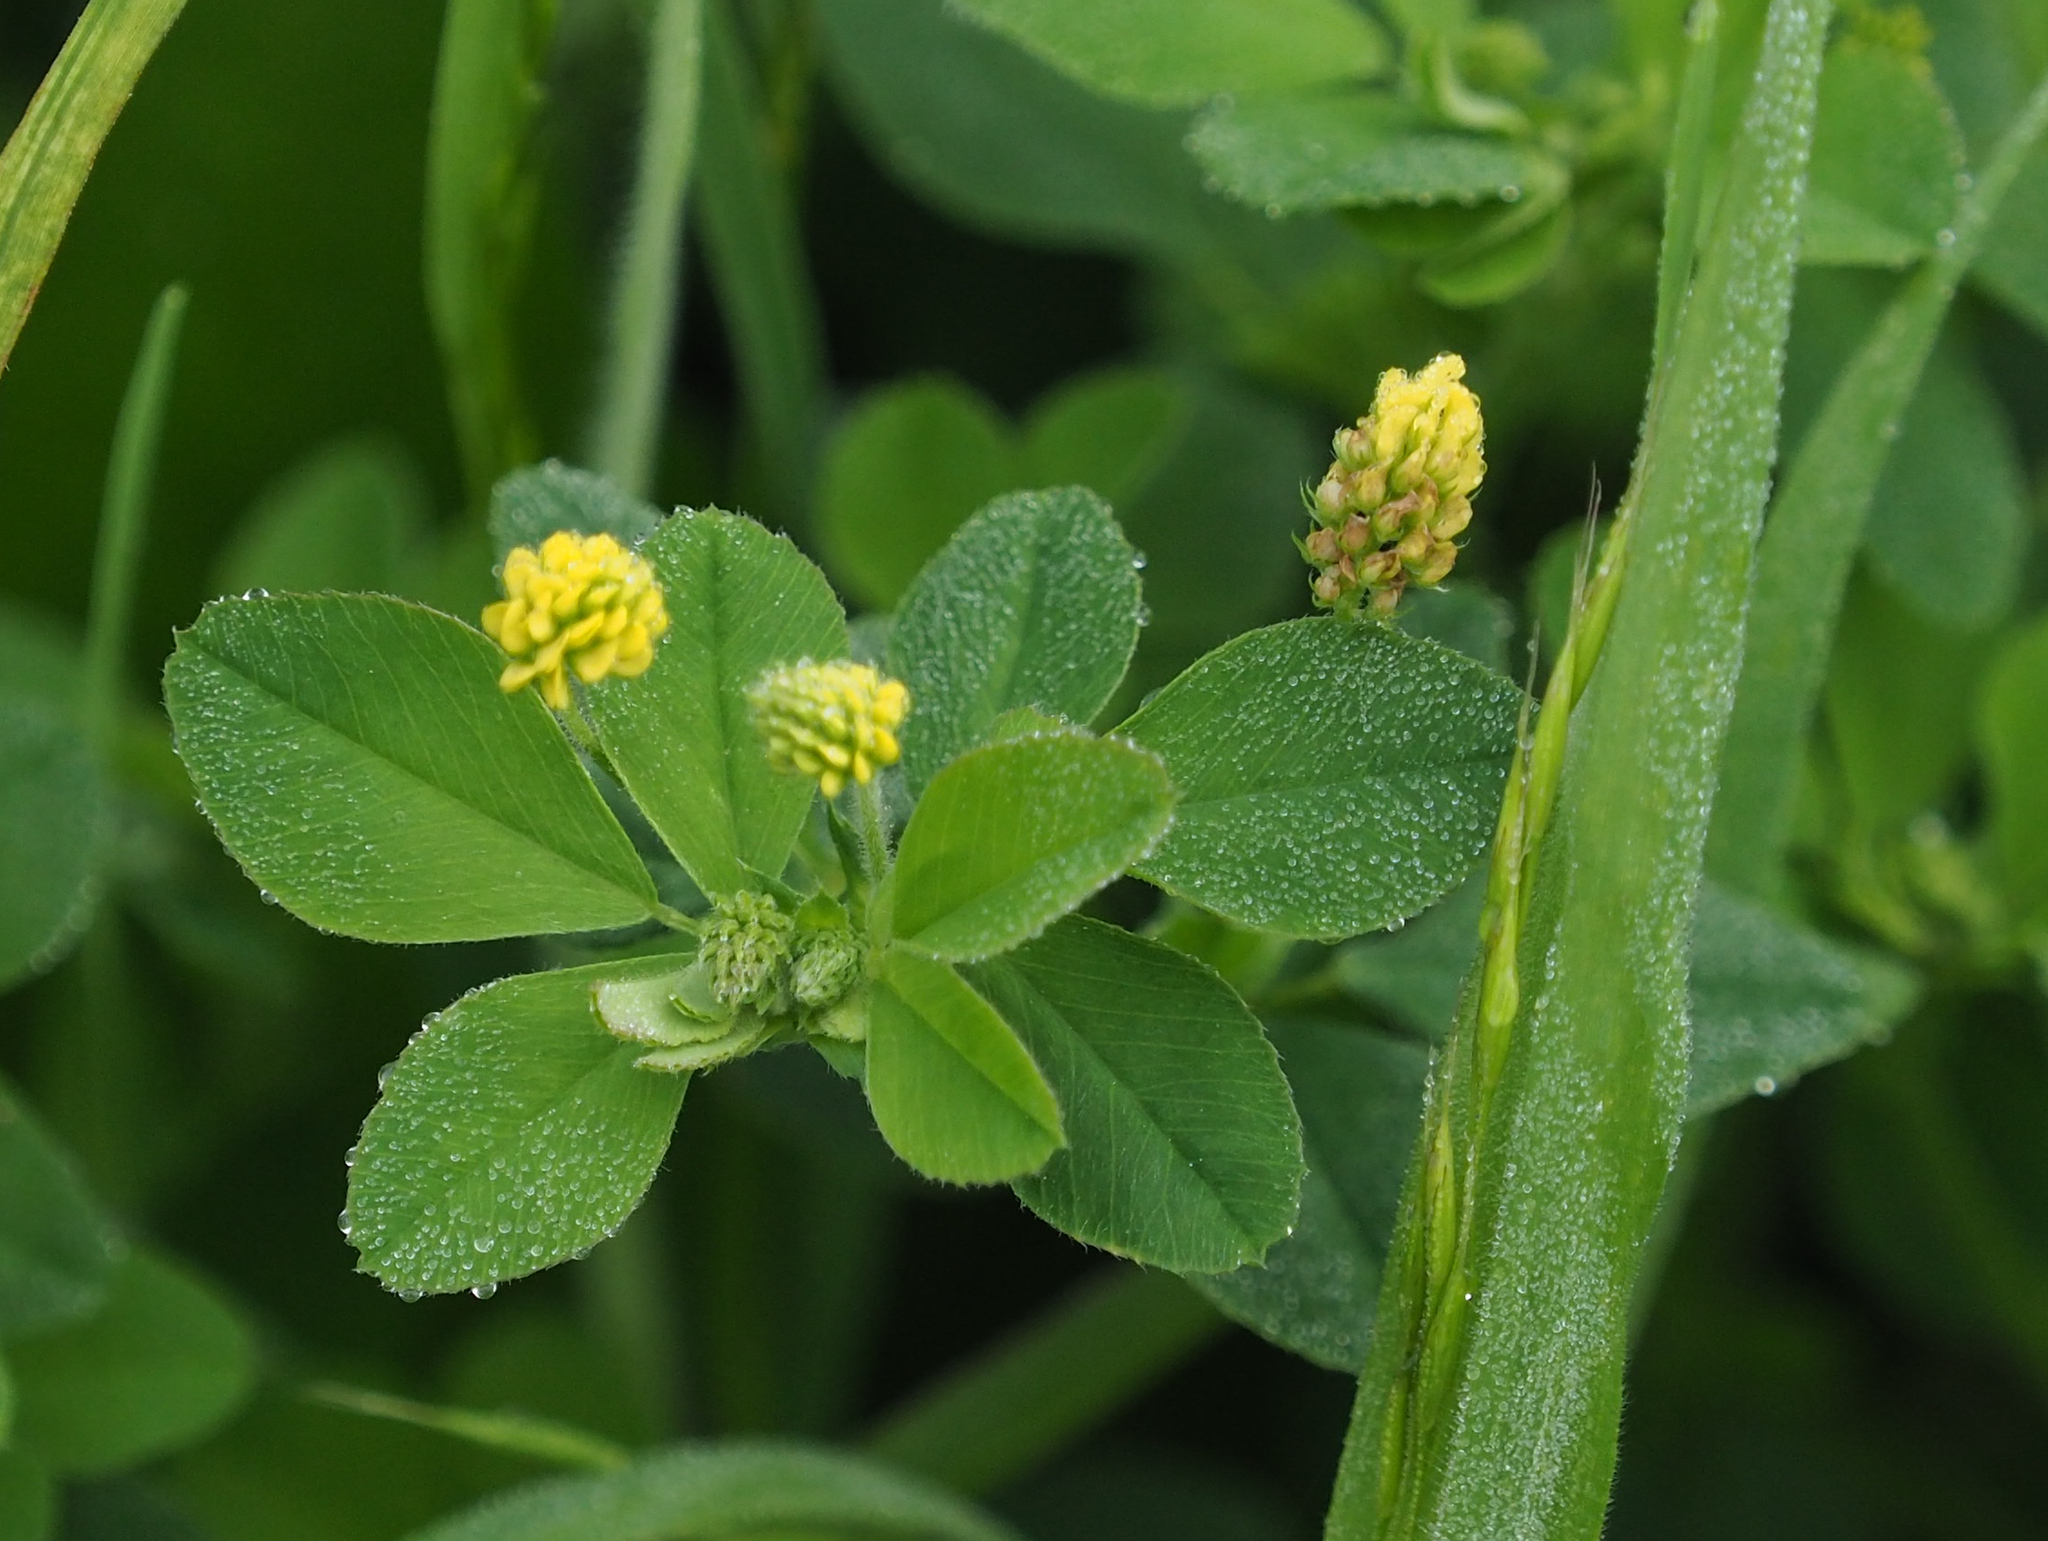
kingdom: Plantae
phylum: Tracheophyta
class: Magnoliopsida
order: Fabales
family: Fabaceae
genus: Medicago
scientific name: Medicago lupulina
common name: Black medick
